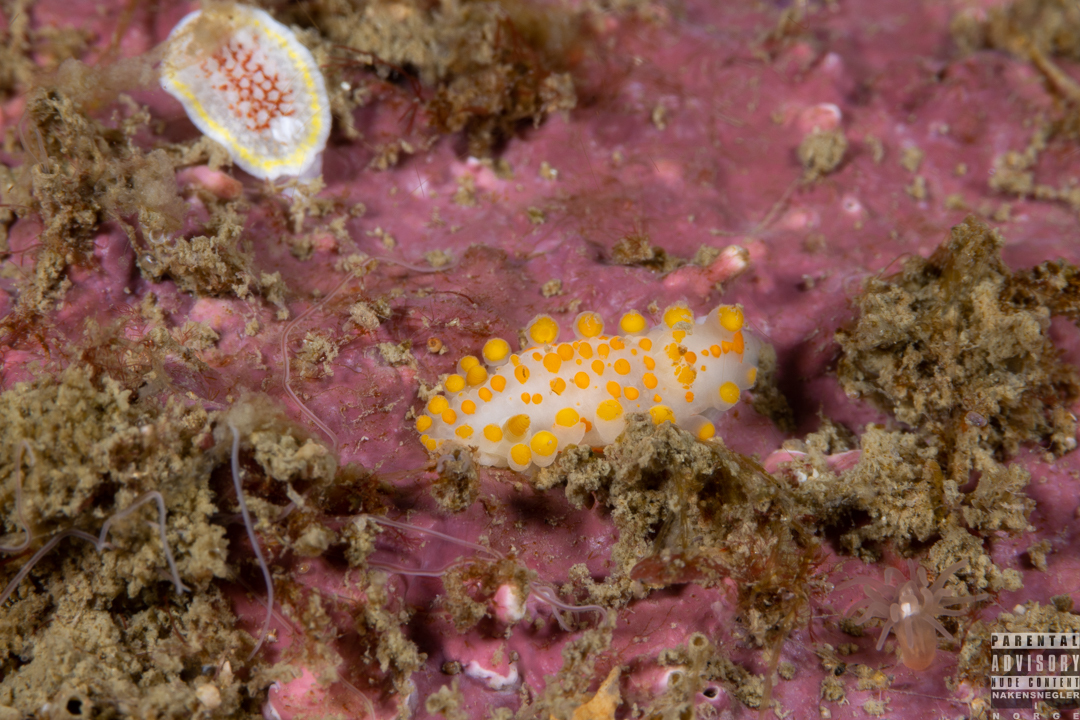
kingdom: Animalia
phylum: Mollusca
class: Gastropoda
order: Nudibranchia
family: Polyceridae
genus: Limacia
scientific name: Limacia clavigera
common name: Orange-clubbed sea slug
